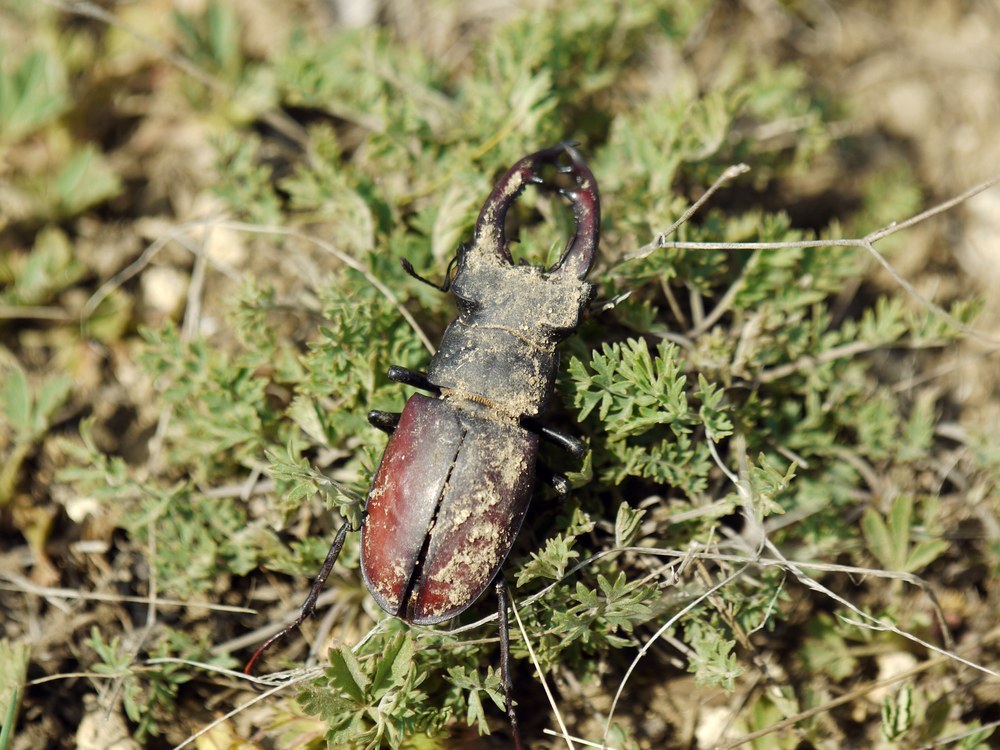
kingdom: Animalia
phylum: Arthropoda
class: Insecta
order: Coleoptera
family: Lucanidae
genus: Lucanus
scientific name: Lucanus cervus
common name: Stag beetle
